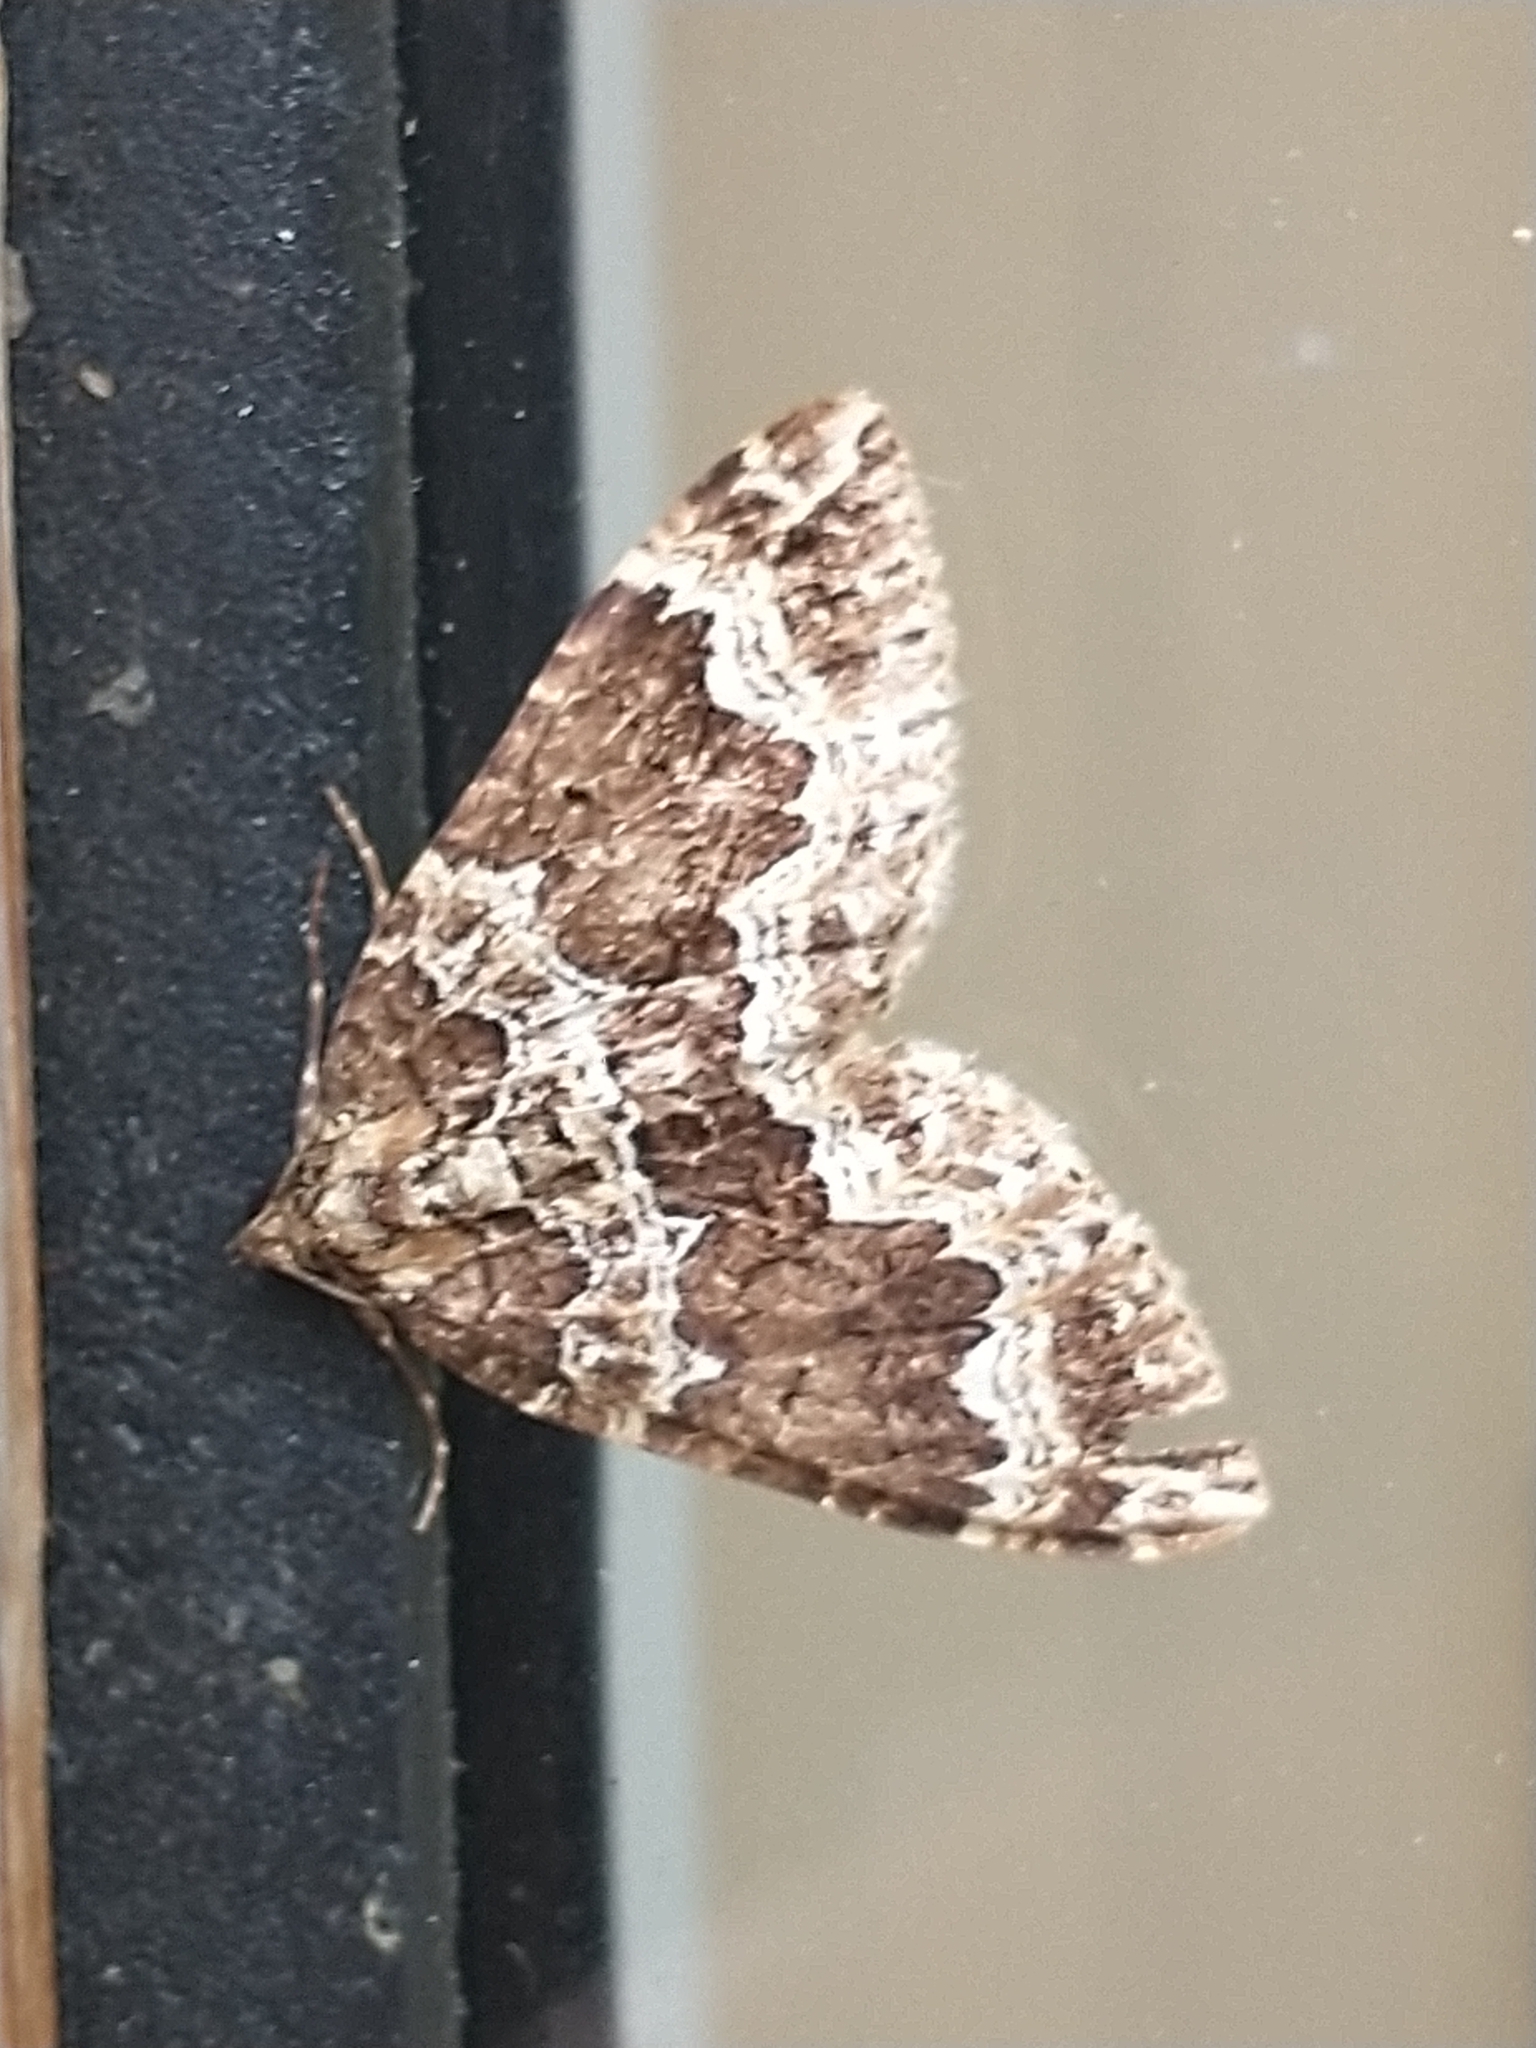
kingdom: Animalia
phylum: Arthropoda
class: Insecta
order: Lepidoptera
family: Geometridae
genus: Lampropteryx
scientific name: Lampropteryx suffumata
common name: Water carpet
